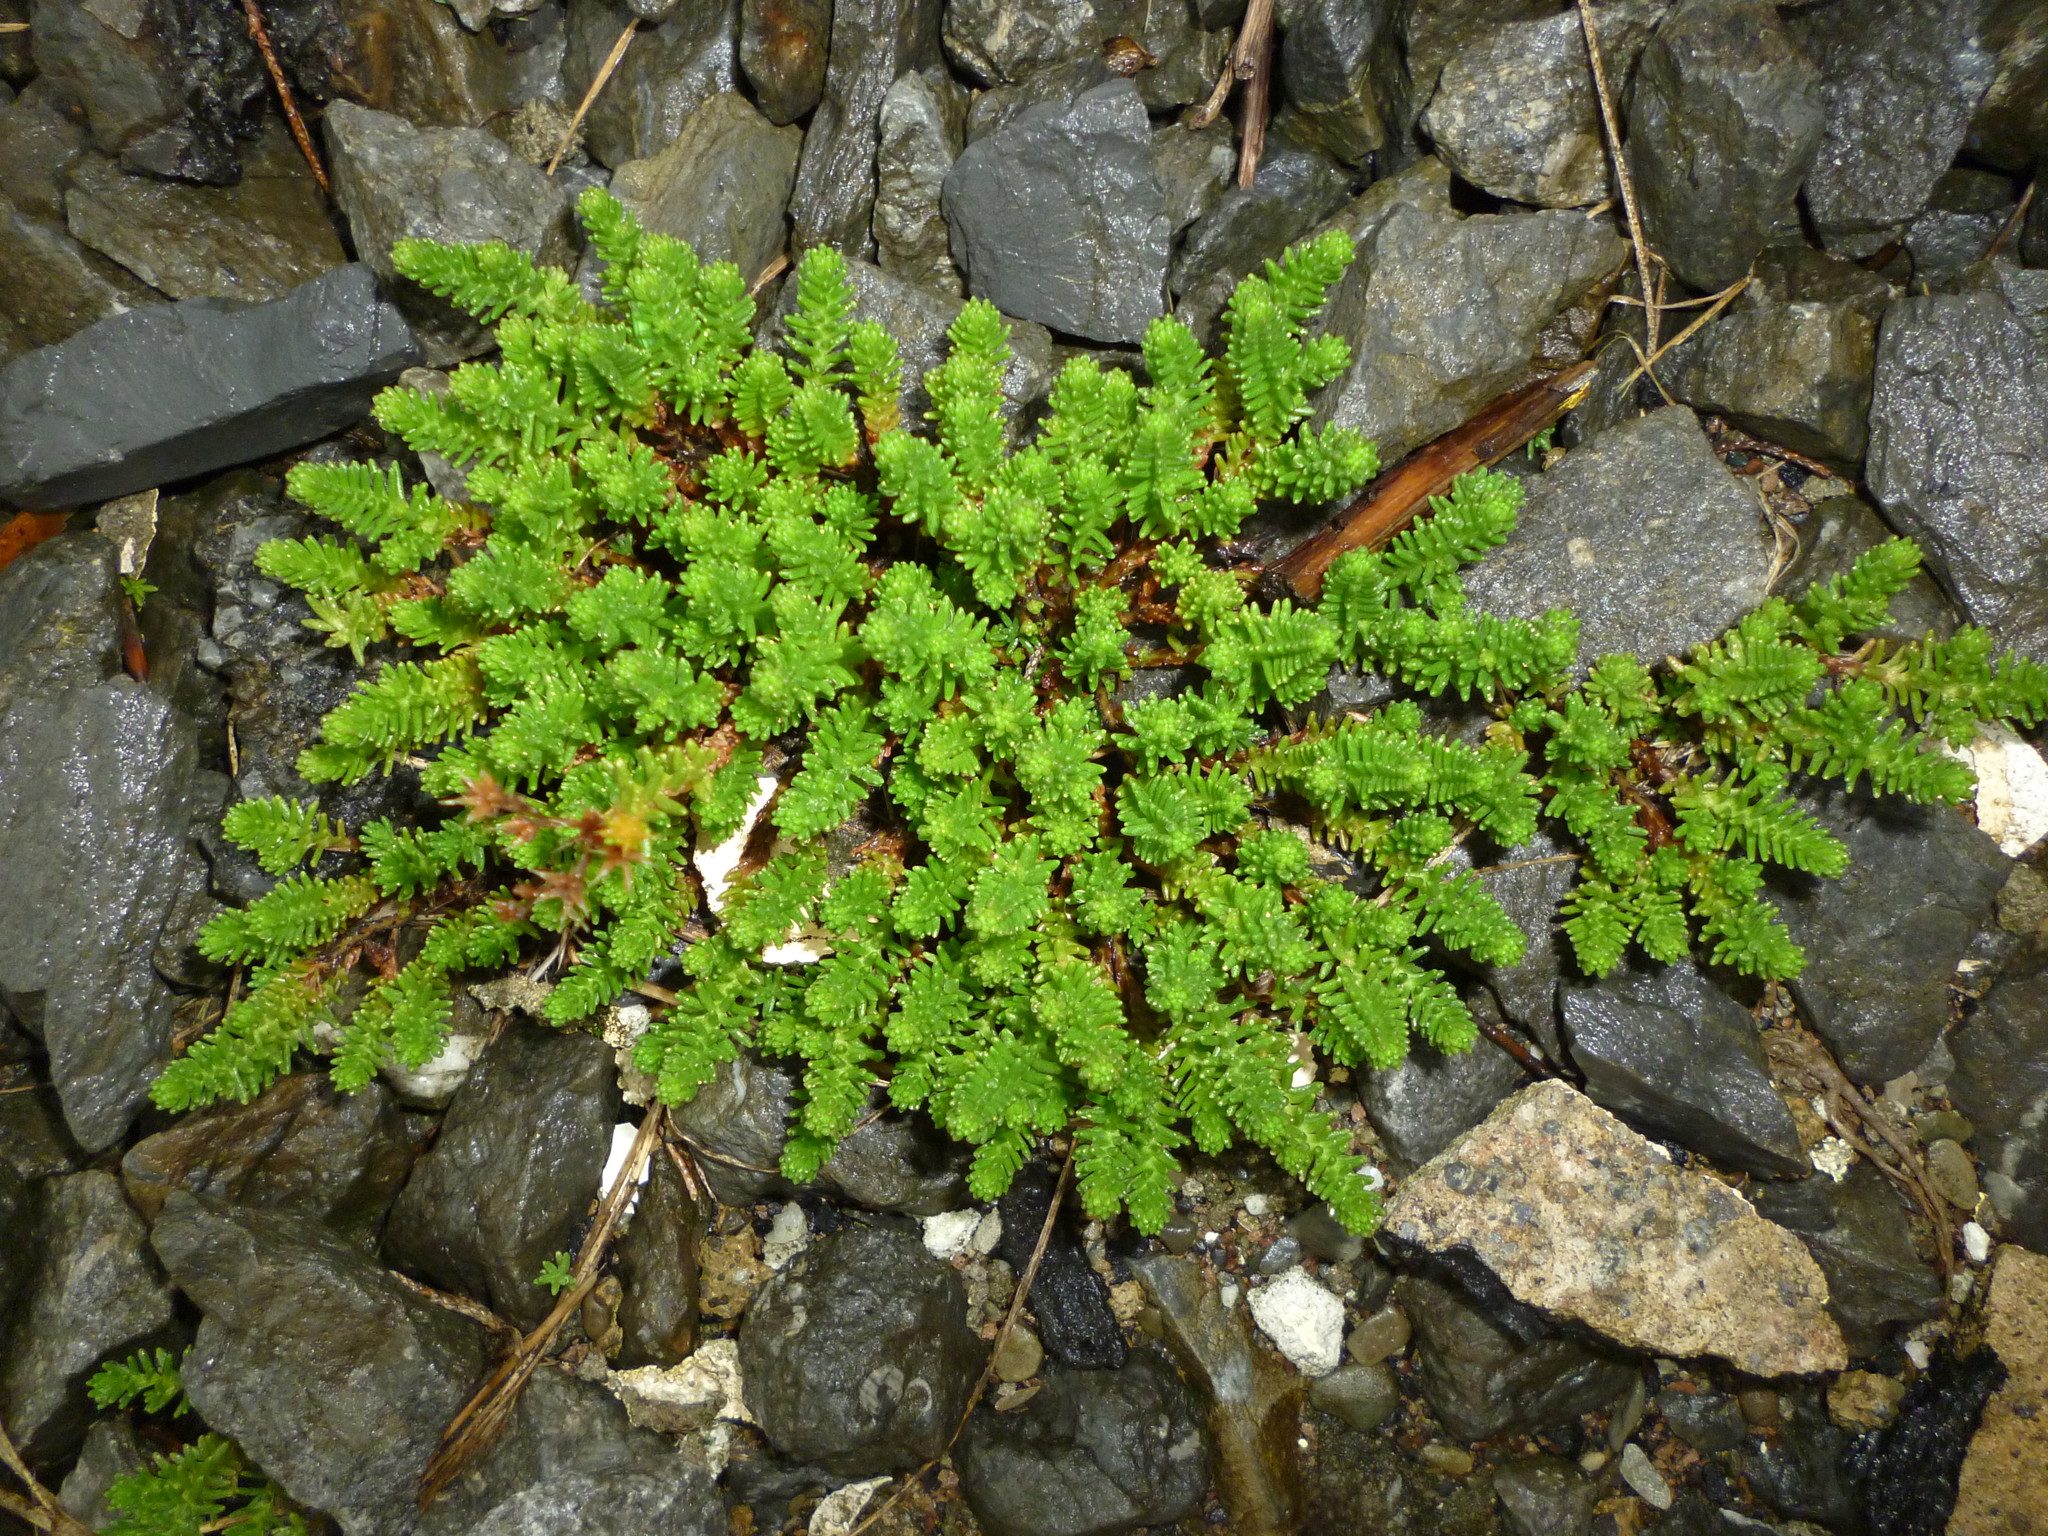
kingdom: Plantae
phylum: Tracheophyta
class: Magnoliopsida
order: Saxifragales
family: Crassulaceae
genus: Sedum
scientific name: Sedum sexangulare
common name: Tasteless stonecrop
